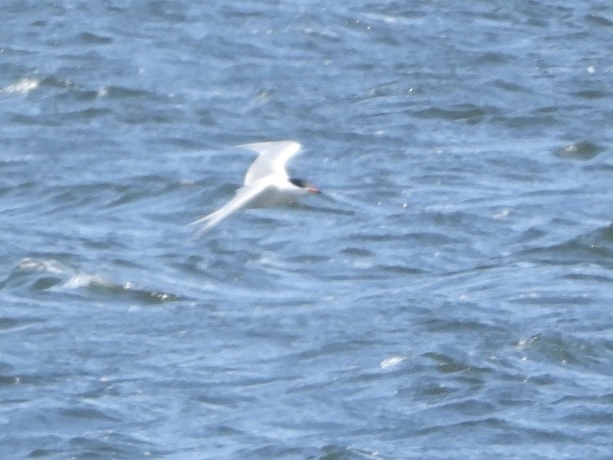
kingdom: Animalia
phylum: Chordata
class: Aves
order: Charadriiformes
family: Laridae
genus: Sterna
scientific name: Sterna hirundo
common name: Common tern
